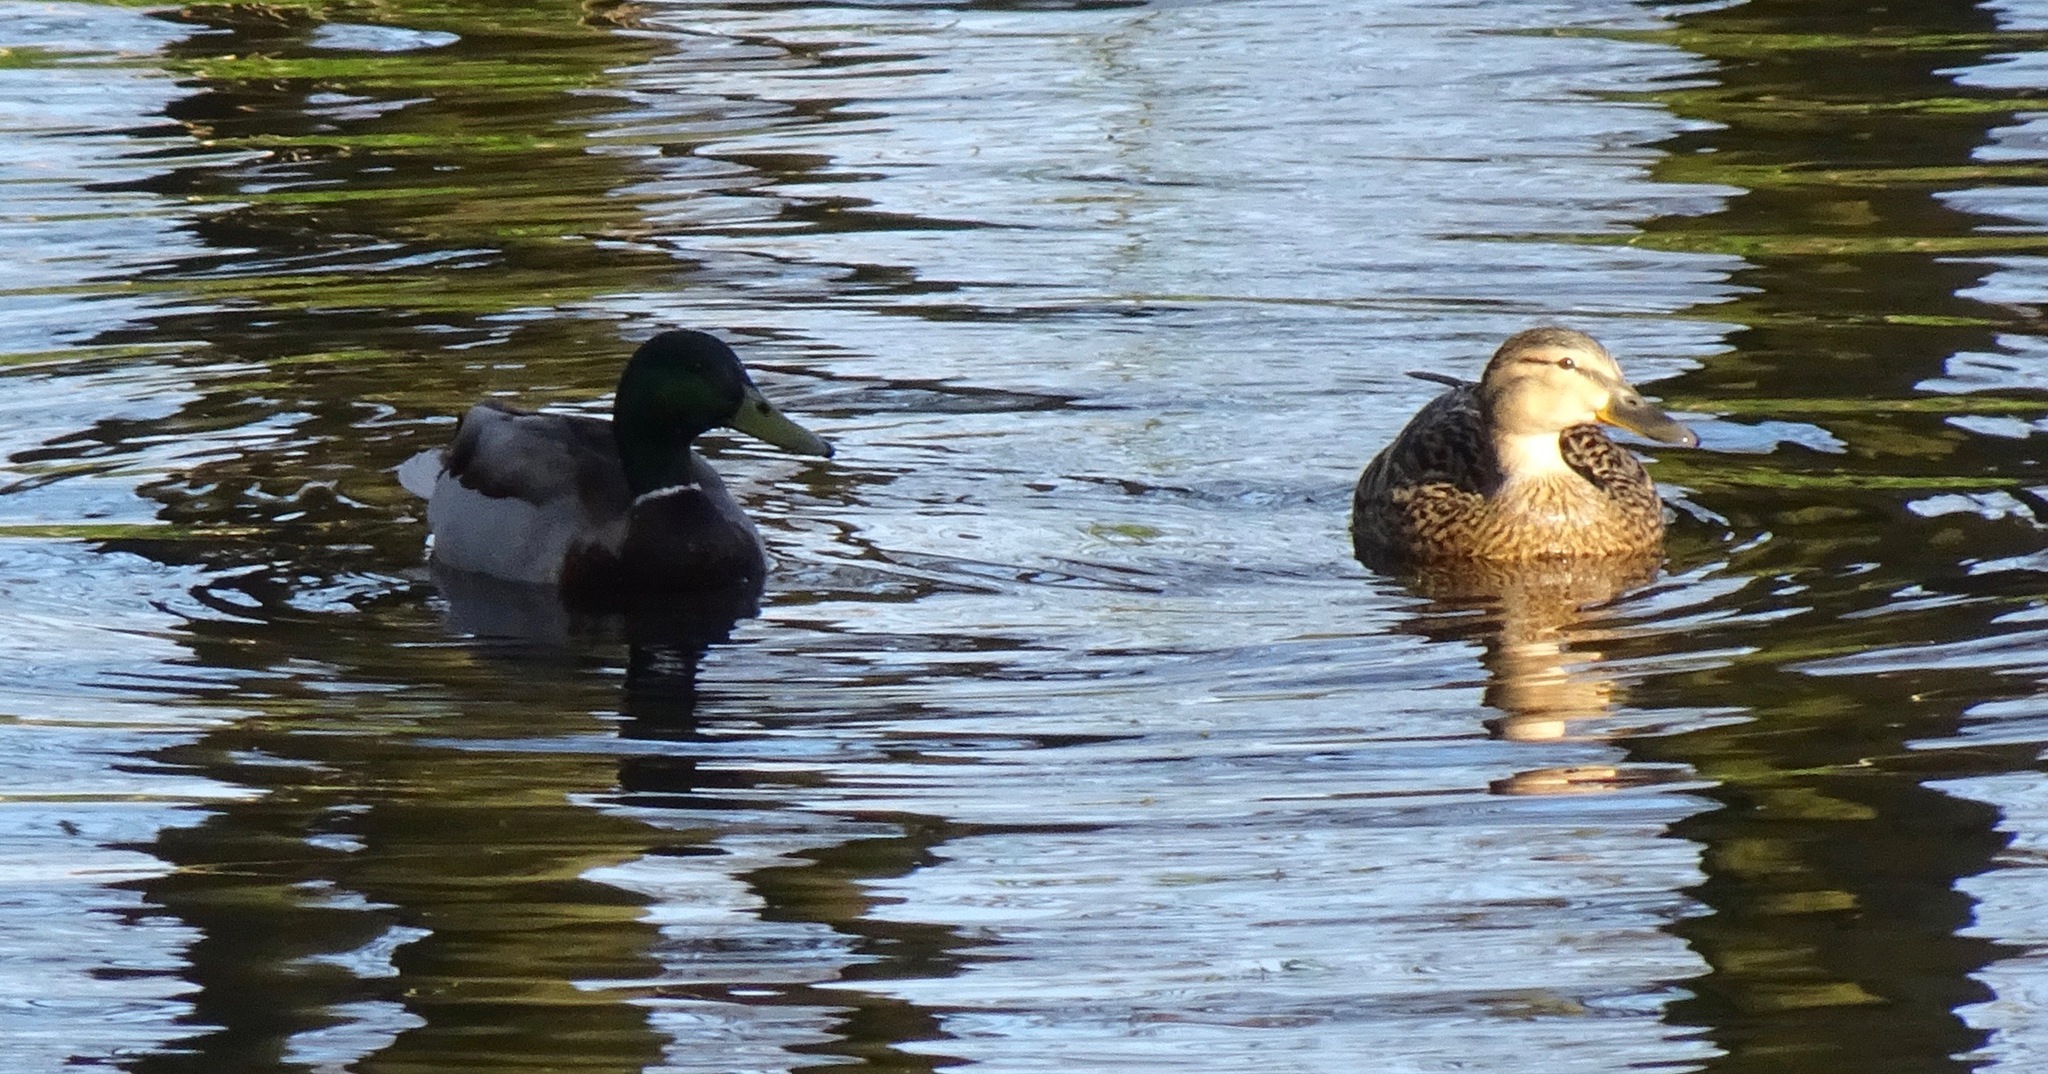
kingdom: Animalia
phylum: Chordata
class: Aves
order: Anseriformes
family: Anatidae
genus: Anas
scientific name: Anas platyrhynchos
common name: Mallard
